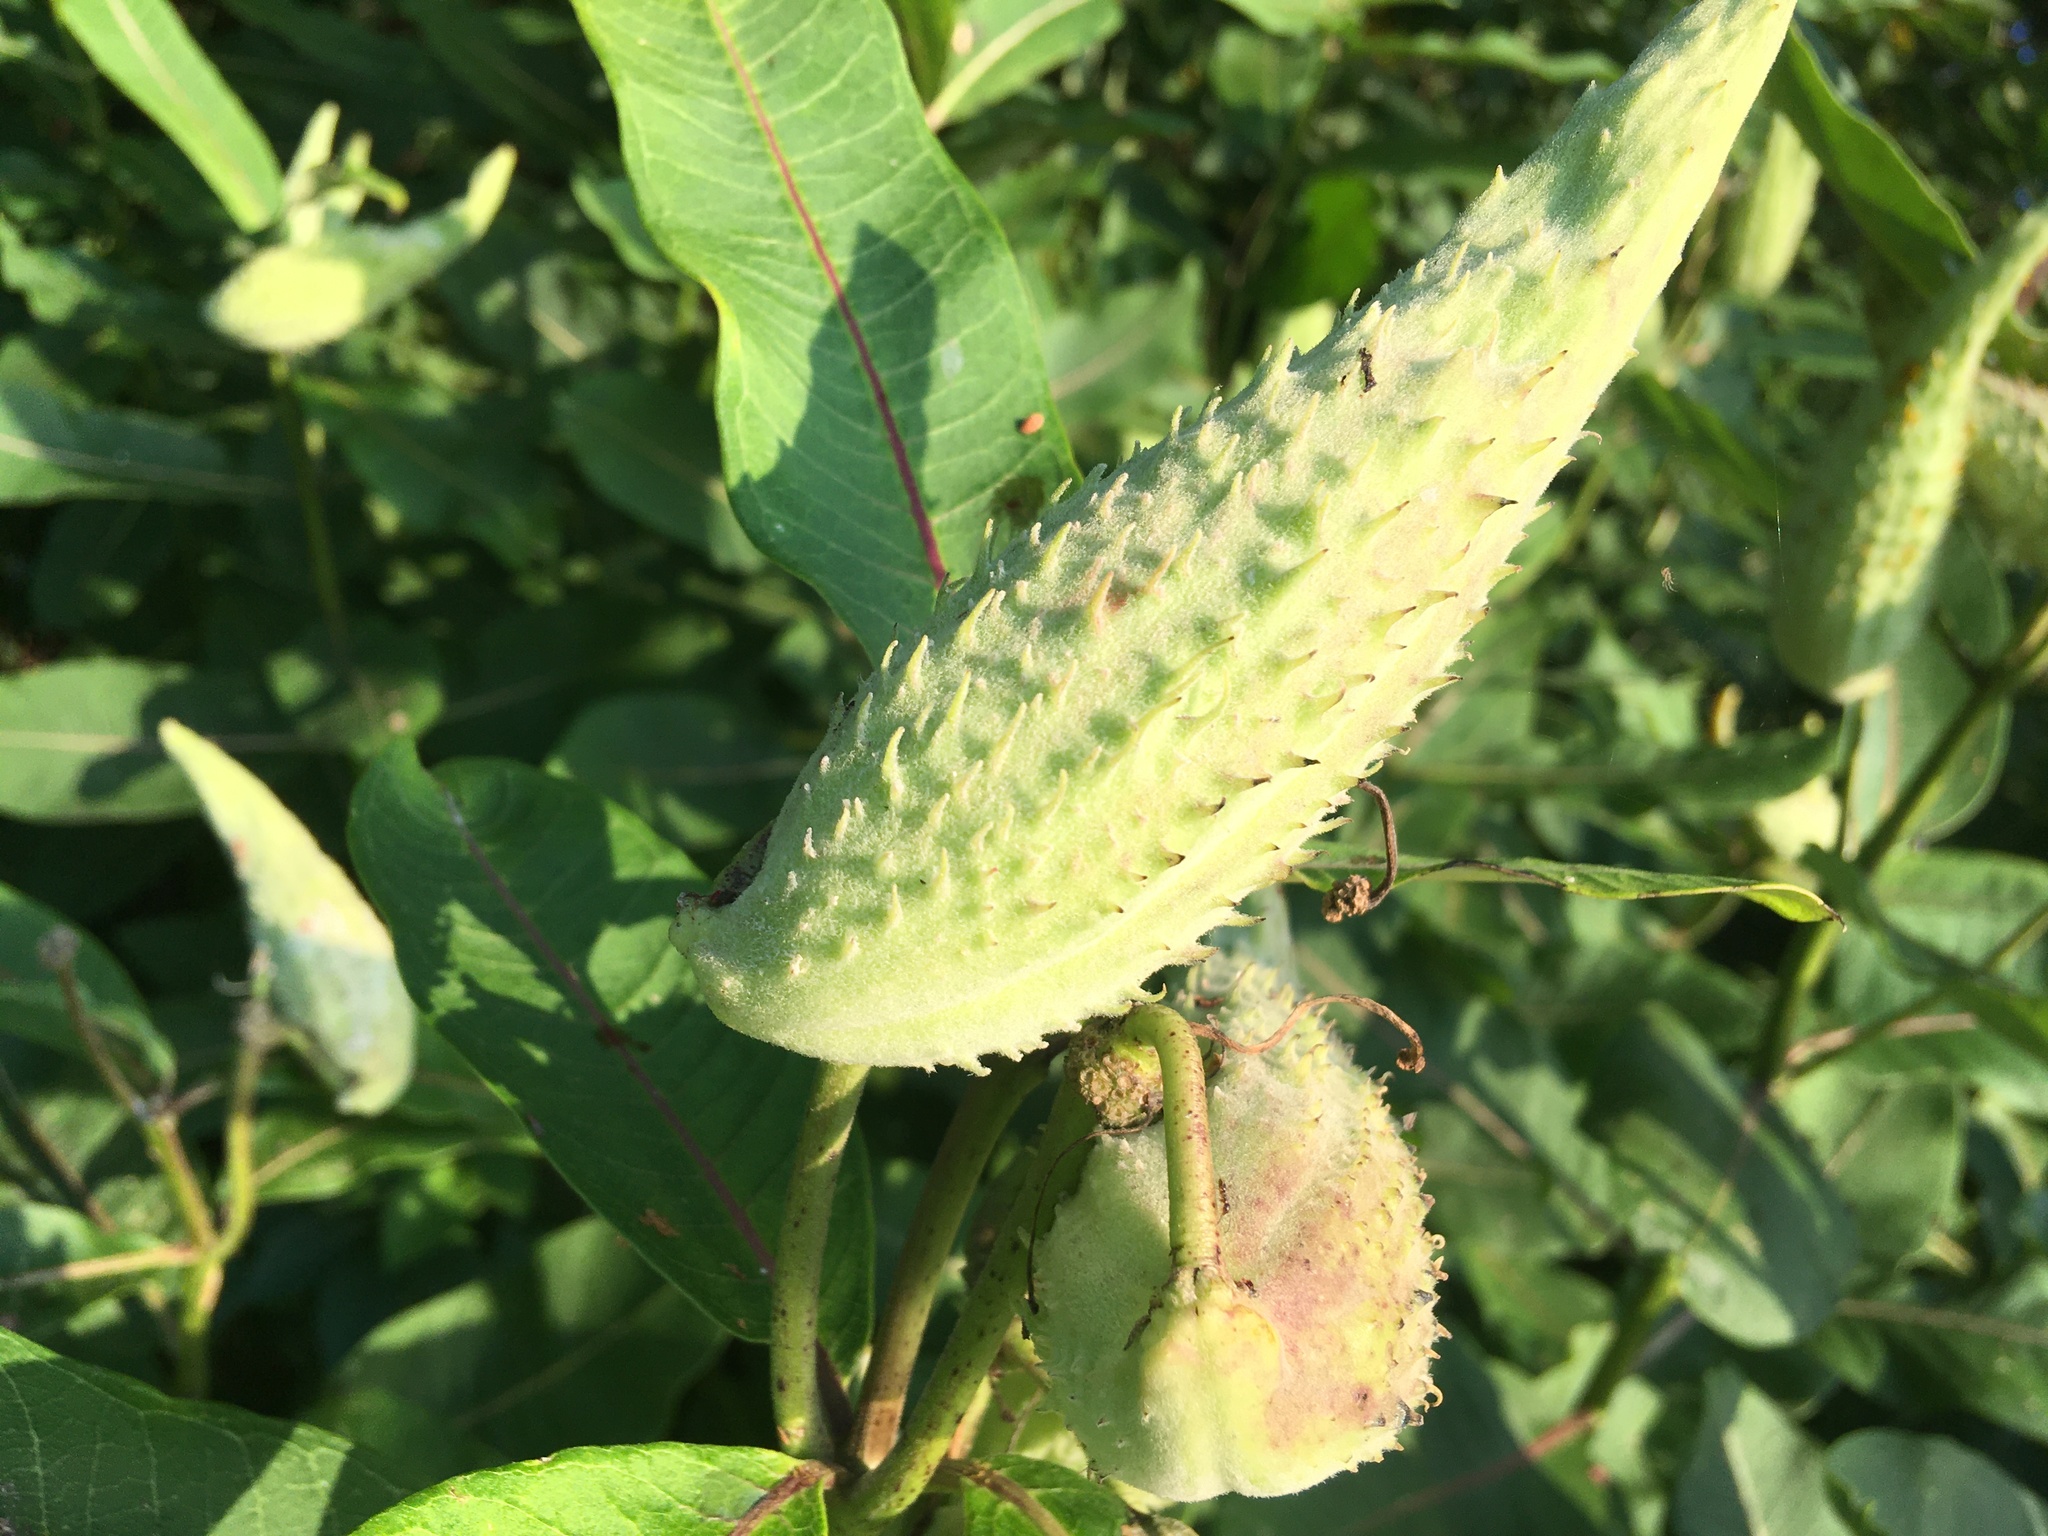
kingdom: Plantae
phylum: Tracheophyta
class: Magnoliopsida
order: Gentianales
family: Apocynaceae
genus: Asclepias
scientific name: Asclepias syriaca
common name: Common milkweed
